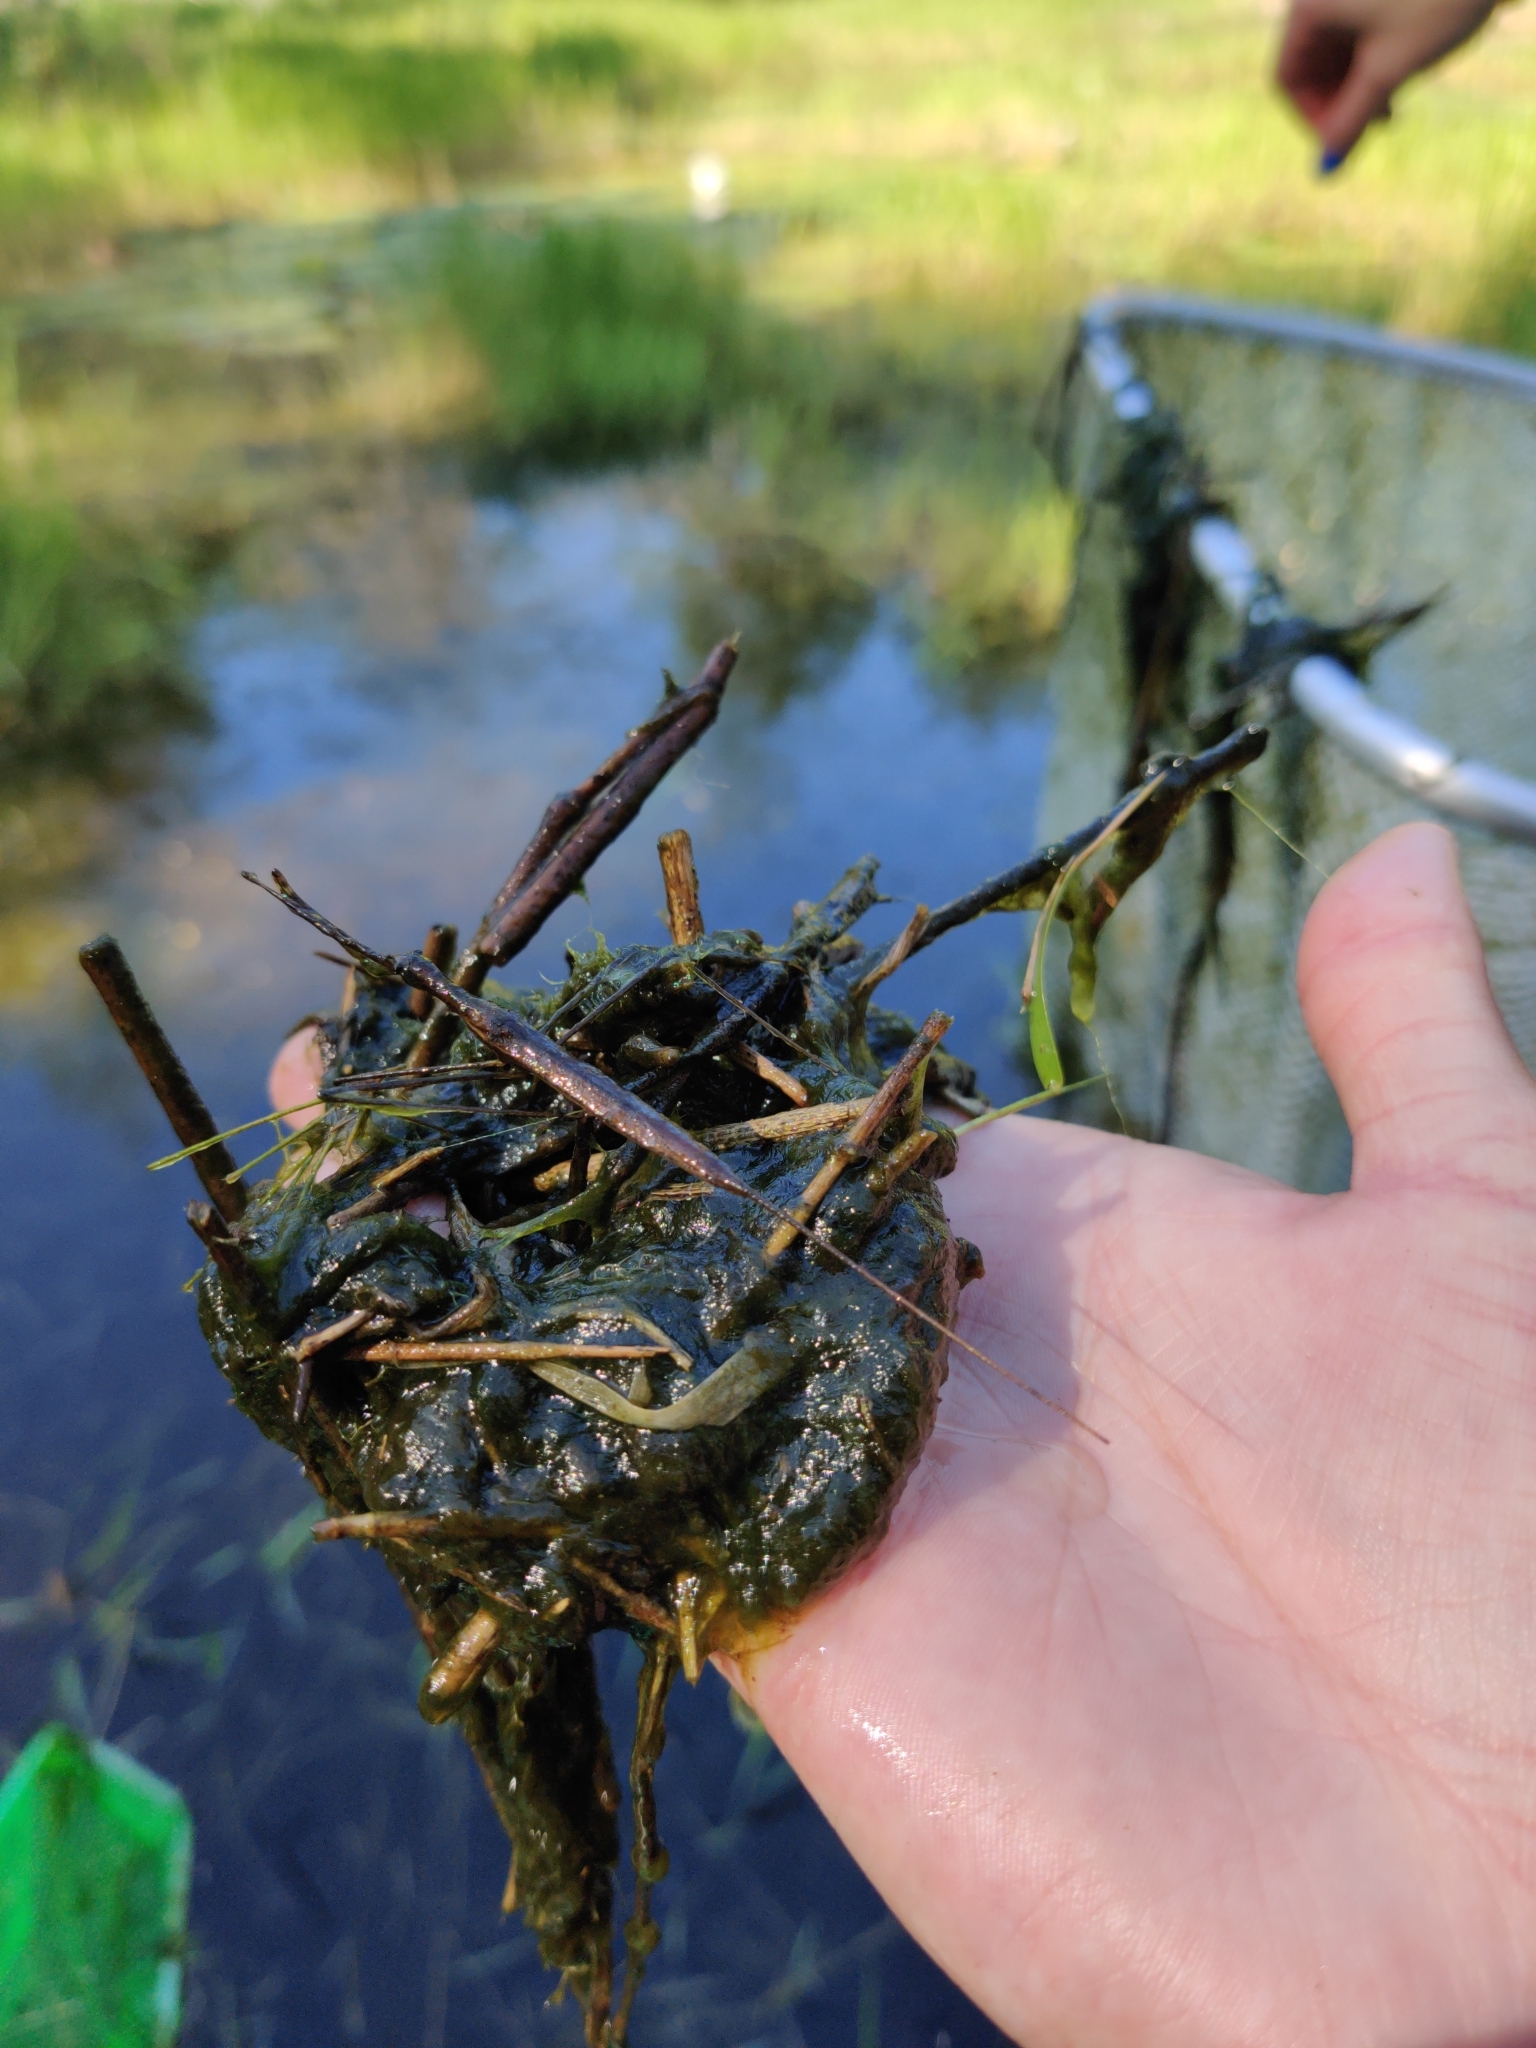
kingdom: Animalia
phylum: Arthropoda
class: Insecta
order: Hemiptera
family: Nepidae
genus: Ranatra
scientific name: Ranatra
